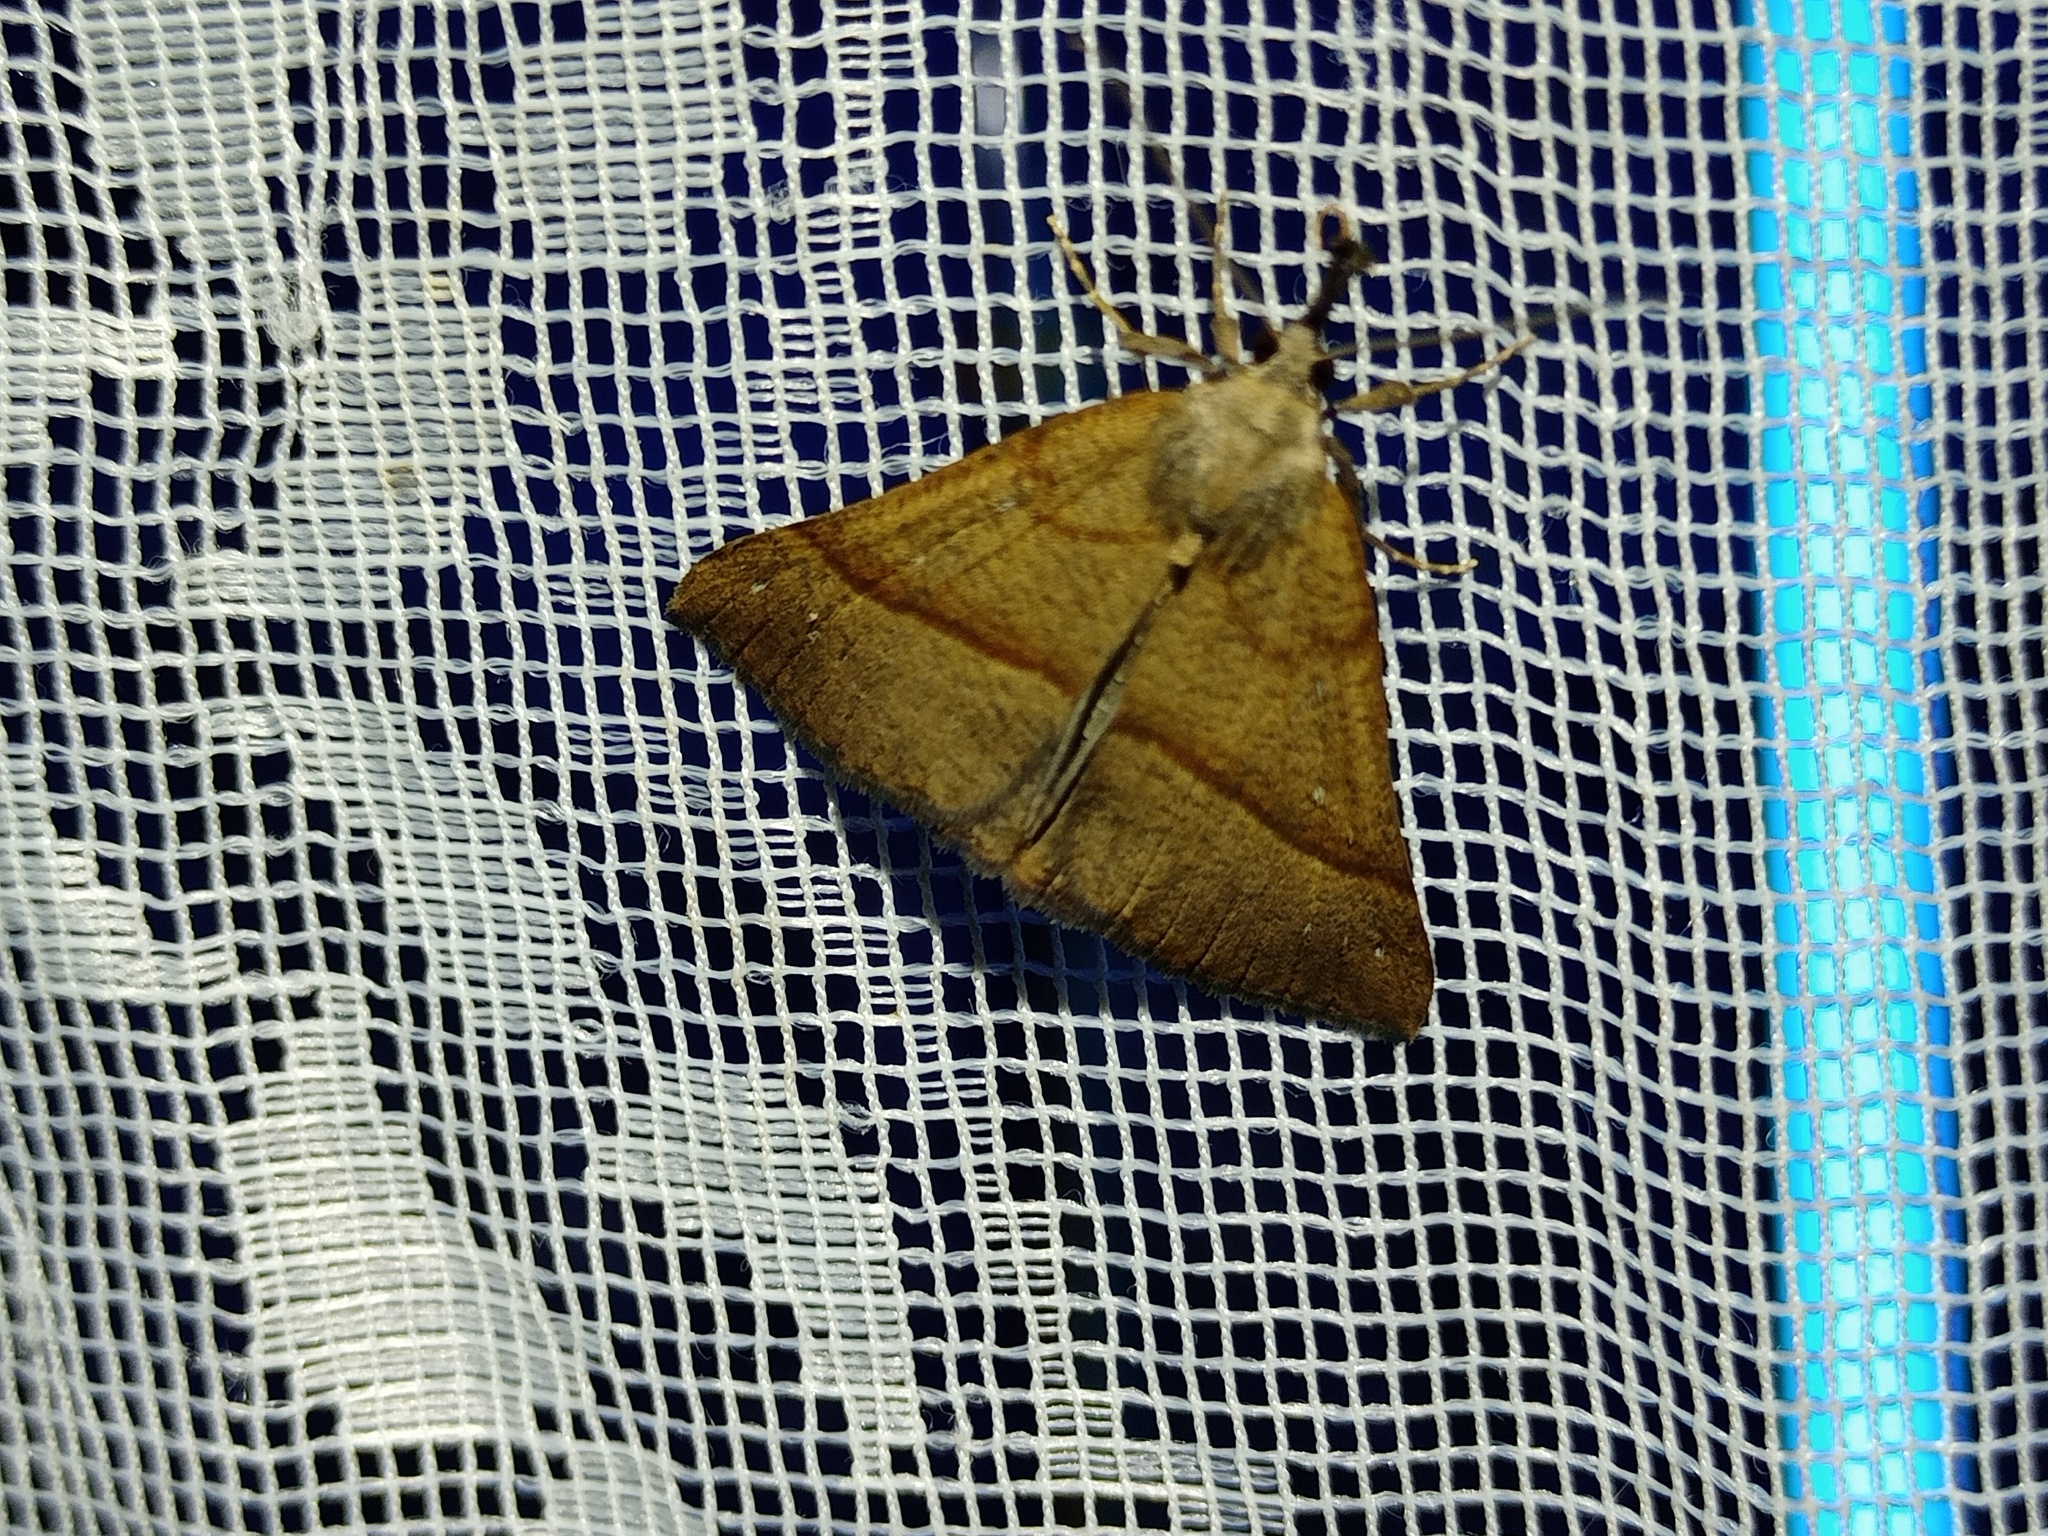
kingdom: Animalia
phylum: Arthropoda
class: Insecta
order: Lepidoptera
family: Erebidae
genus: Hypena
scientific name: Hypena proboscidalis
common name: Snout
